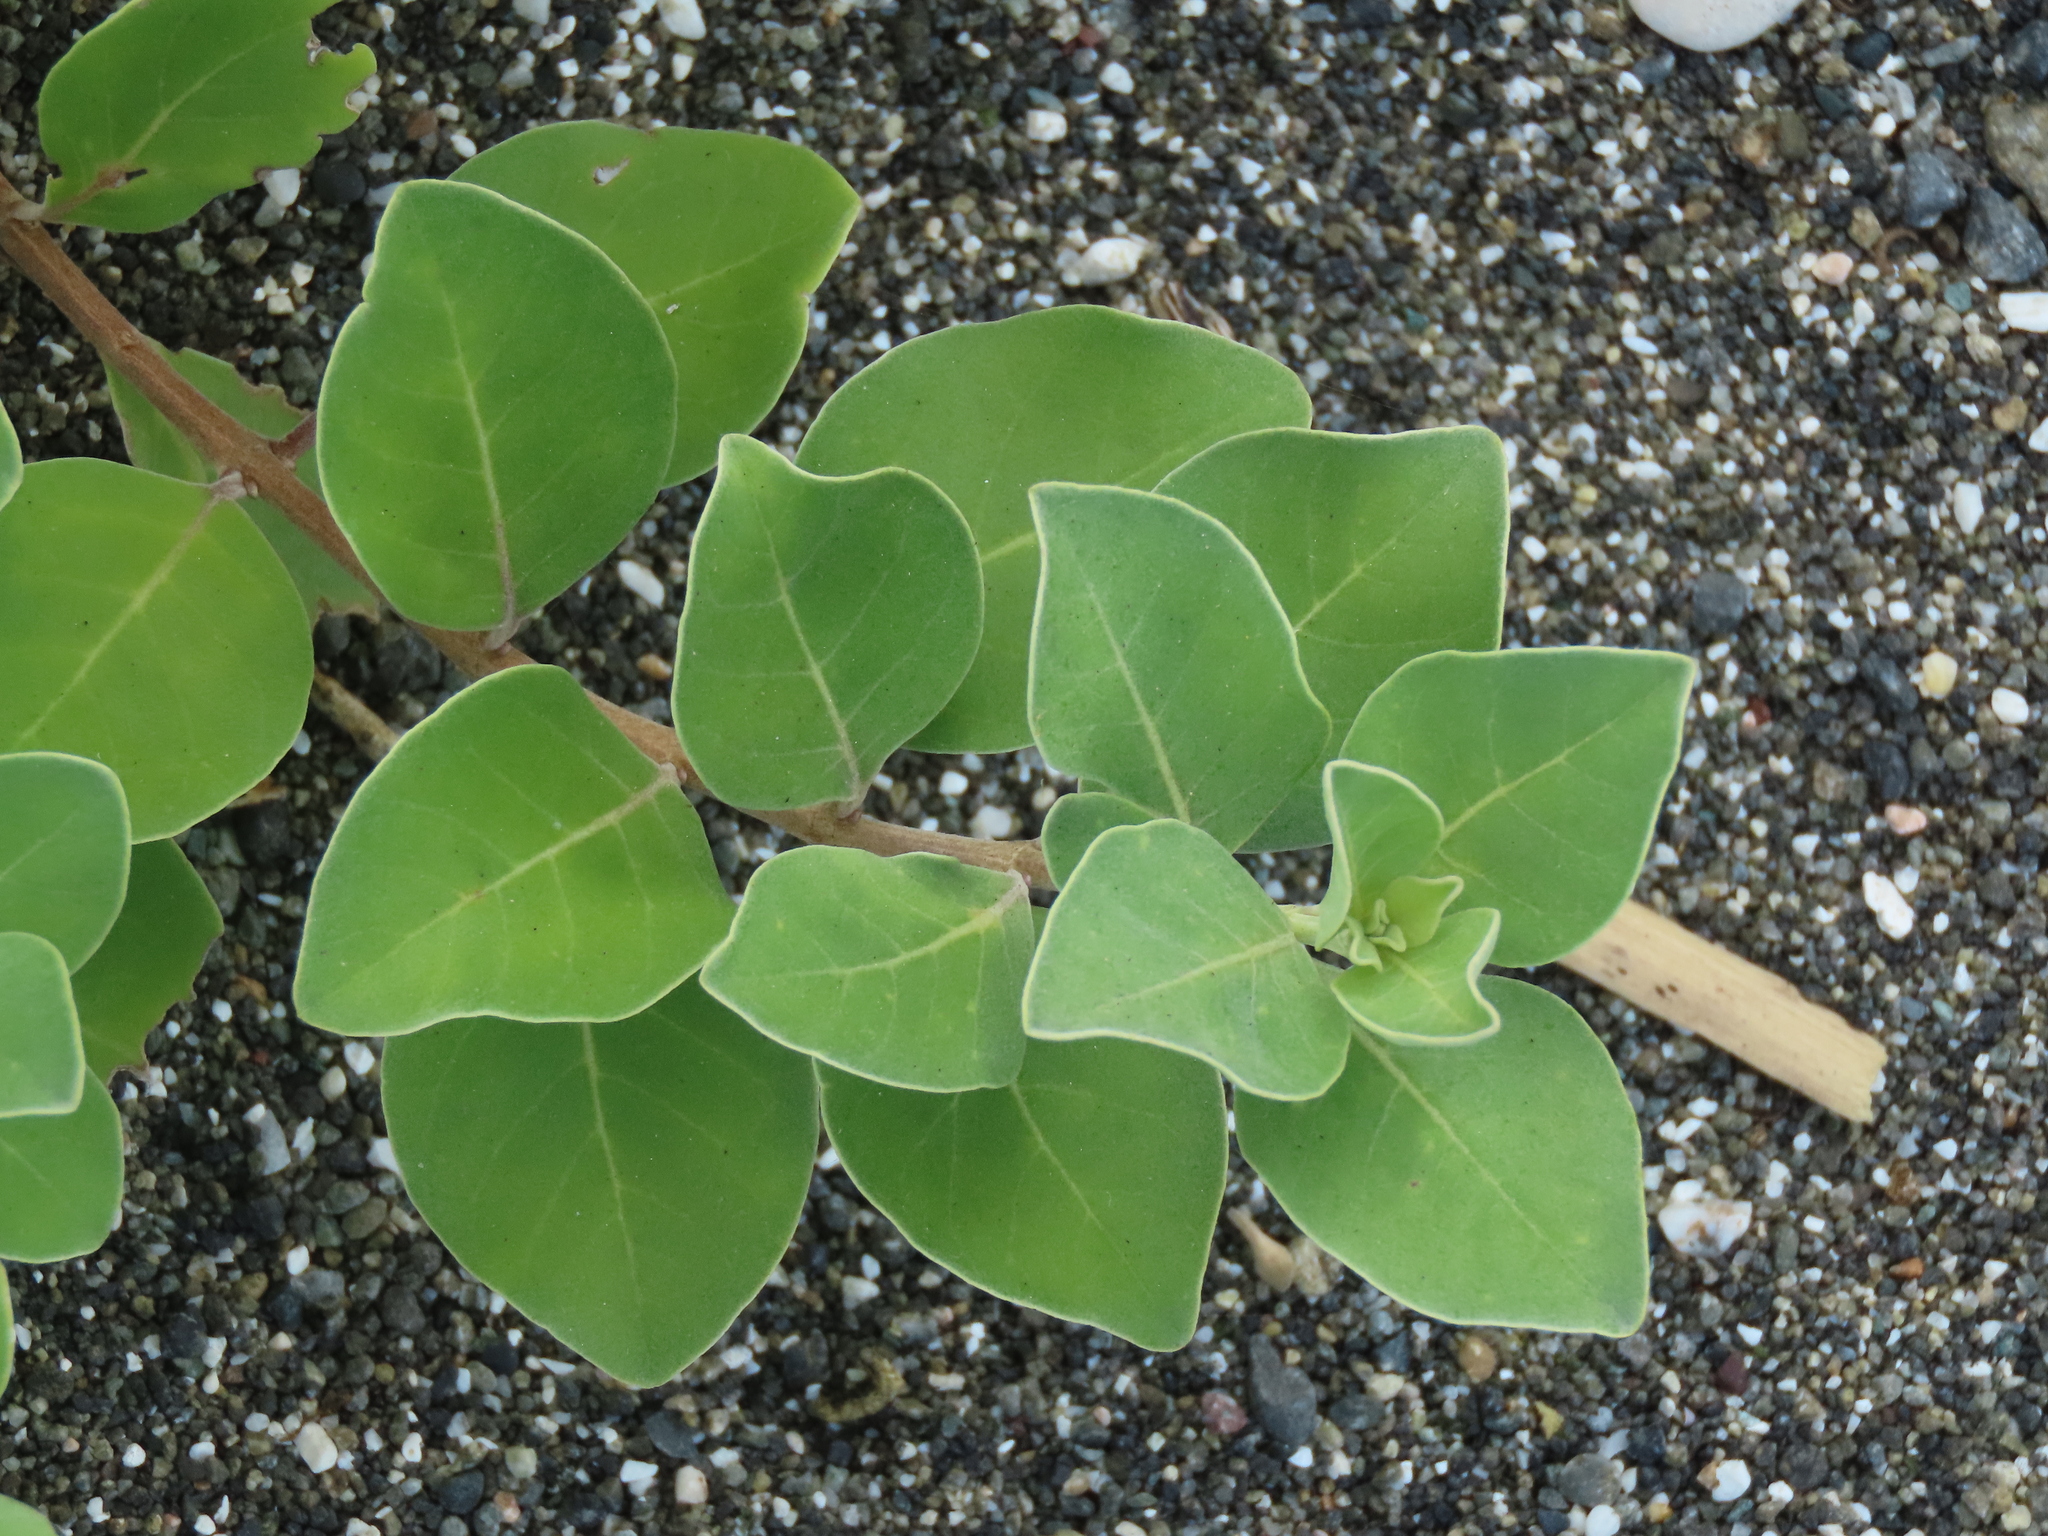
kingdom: Plantae
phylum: Tracheophyta
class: Magnoliopsida
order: Lamiales
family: Lamiaceae
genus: Vitex
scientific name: Vitex rotundifolia
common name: Beach vitex
